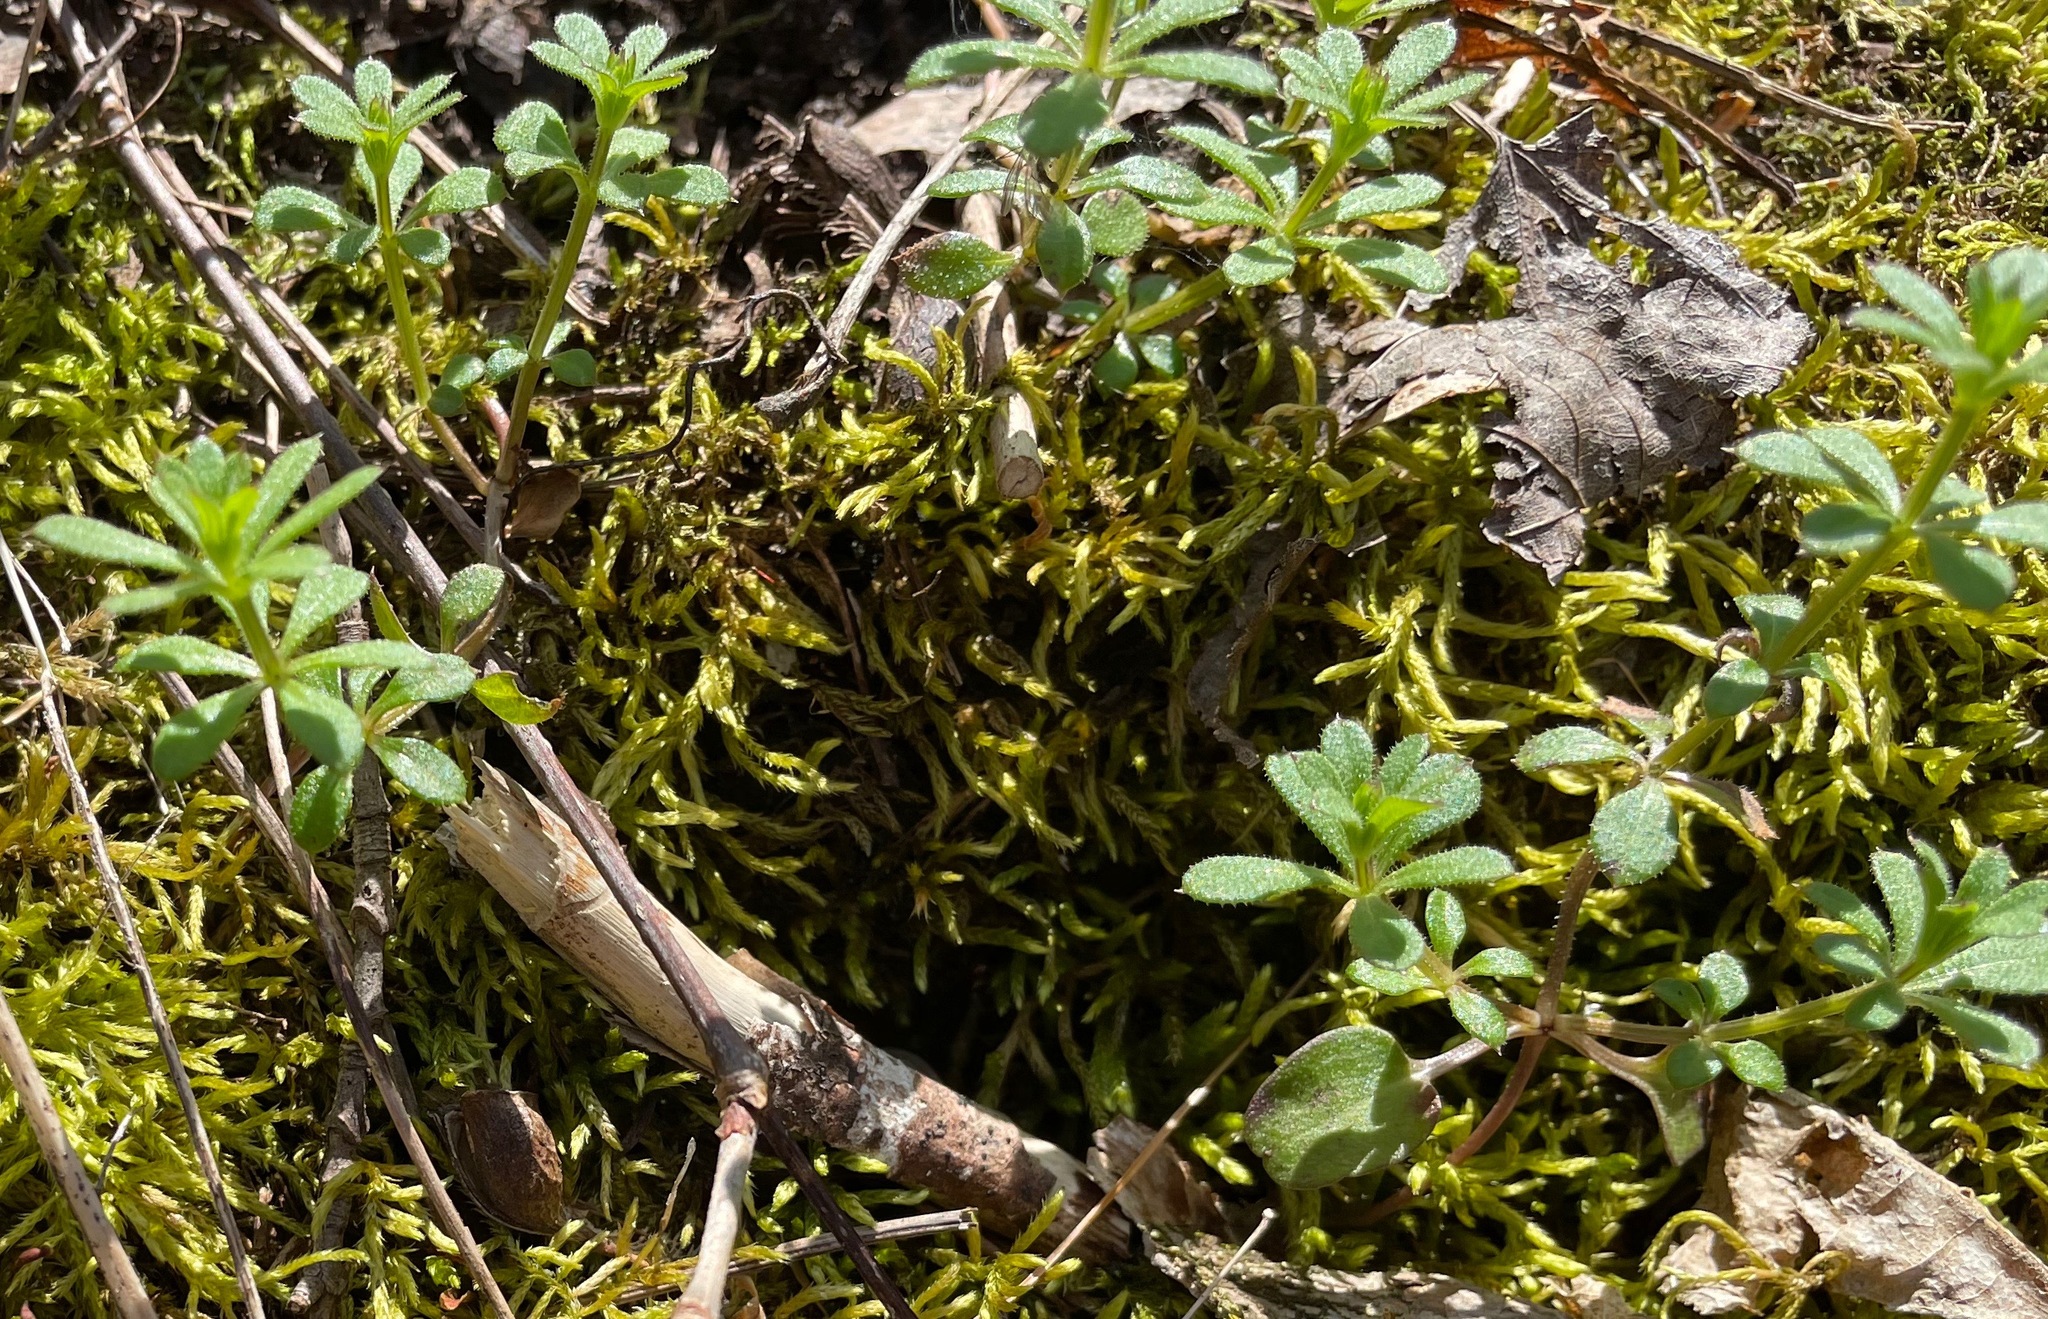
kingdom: Plantae
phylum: Tracheophyta
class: Magnoliopsida
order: Gentianales
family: Rubiaceae
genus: Galium
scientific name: Galium aparine
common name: Cleavers
